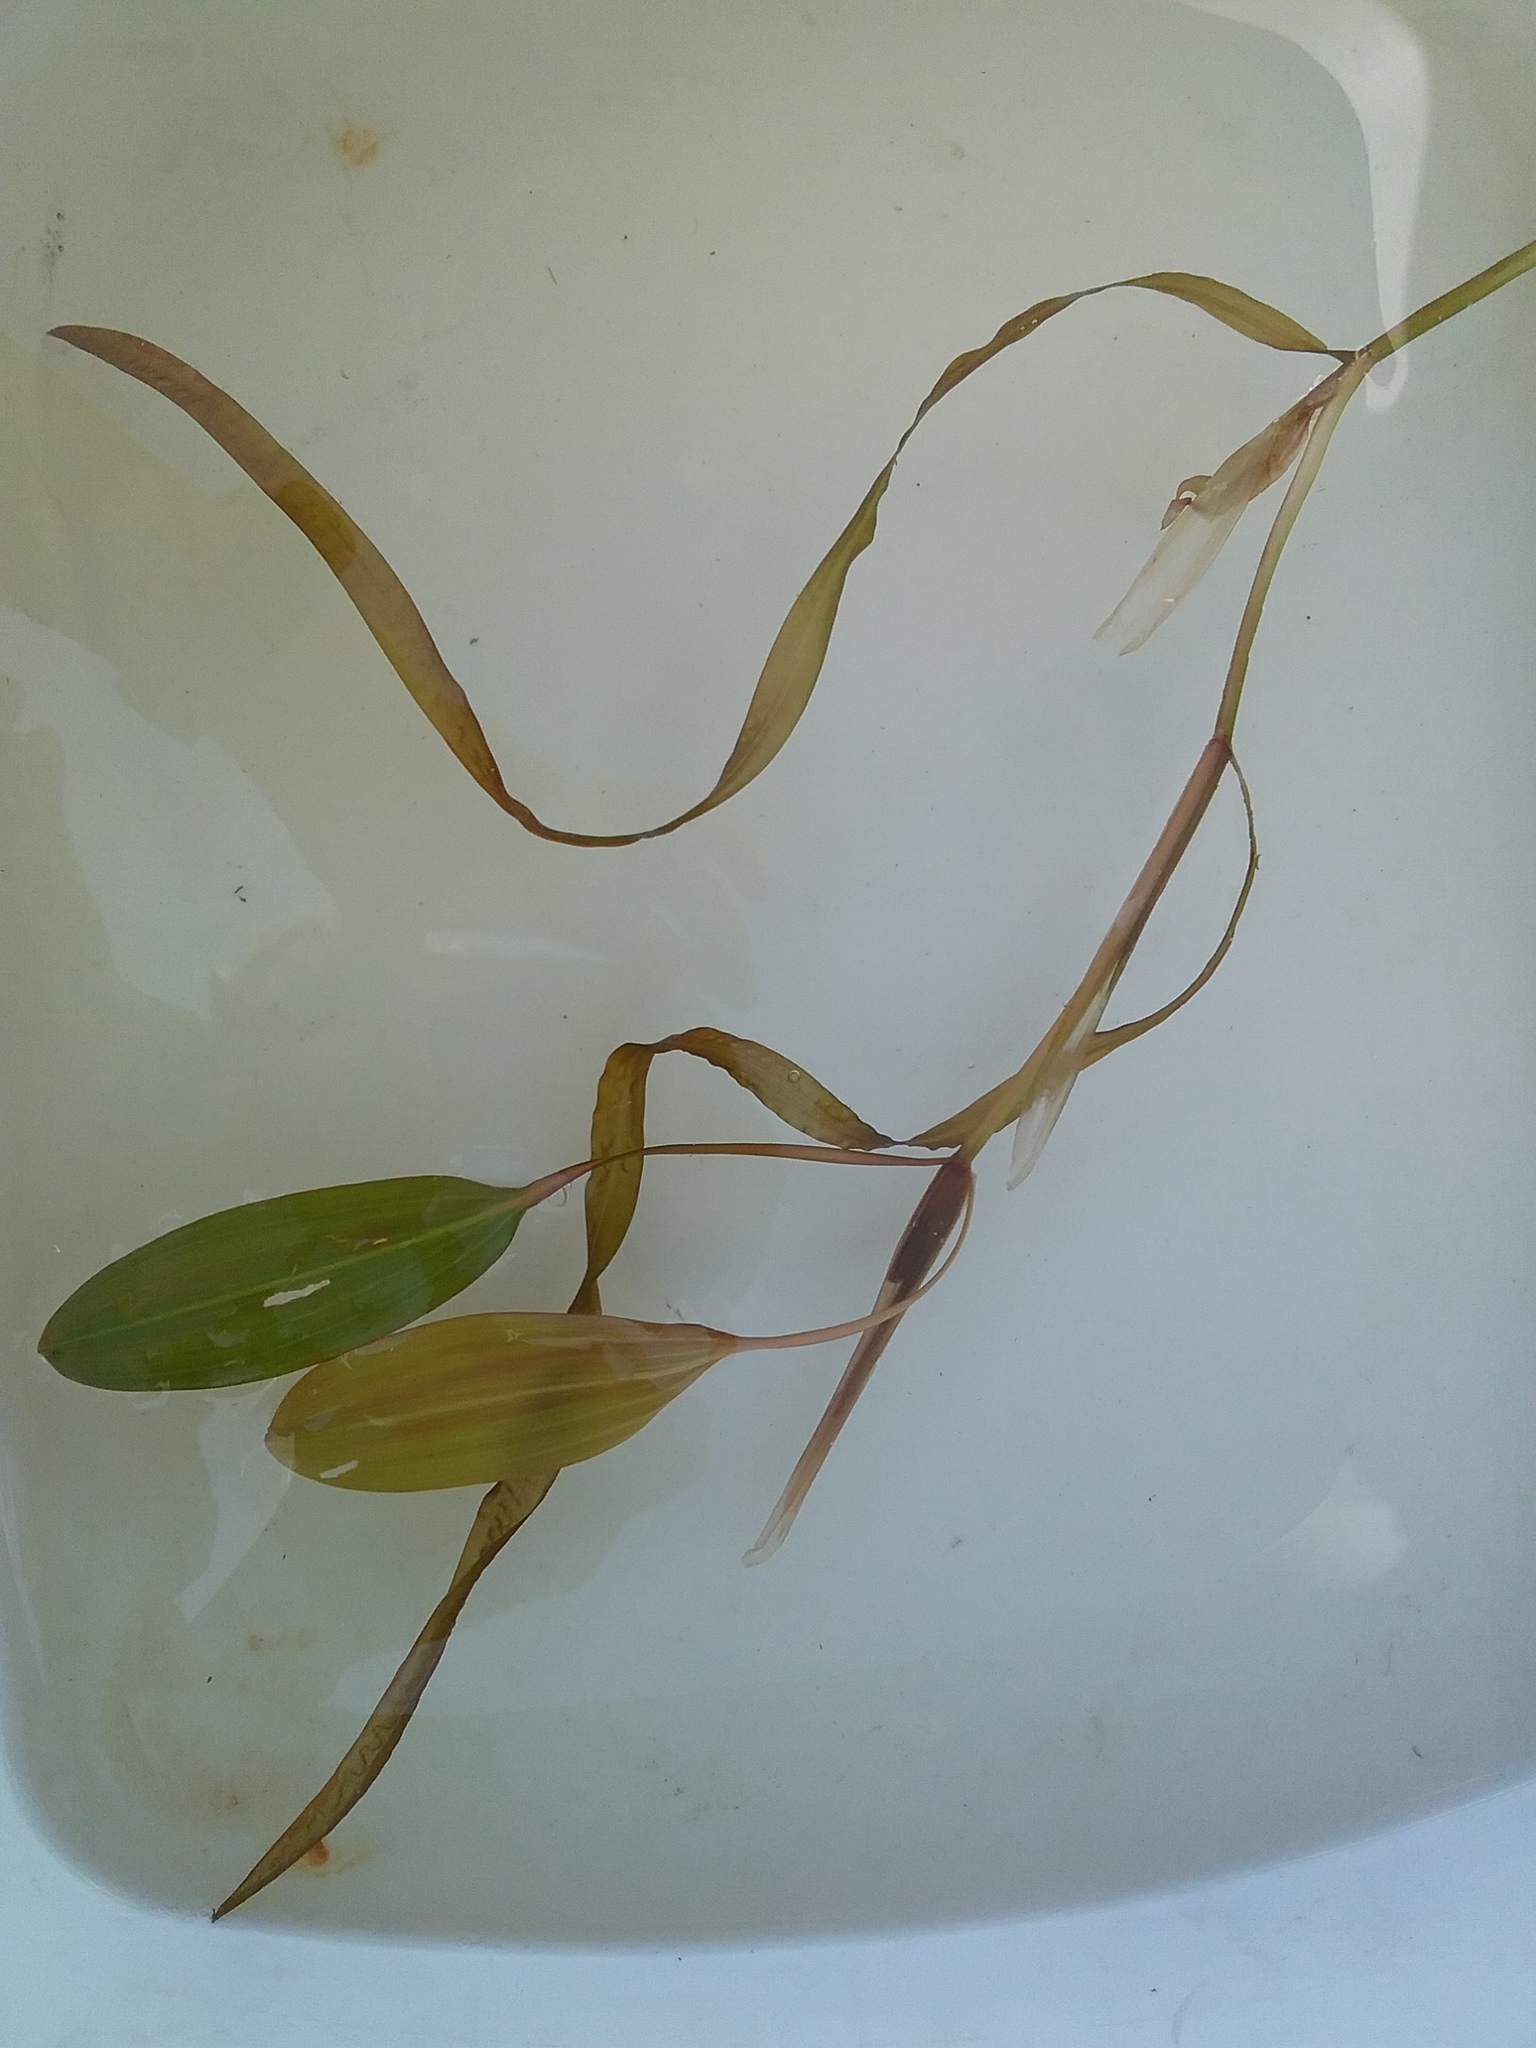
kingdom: Plantae
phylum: Tracheophyta
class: Liliopsida
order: Alismatales
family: Potamogetonaceae
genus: Potamogeton
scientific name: Potamogeton epihydrus
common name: American pondweed
